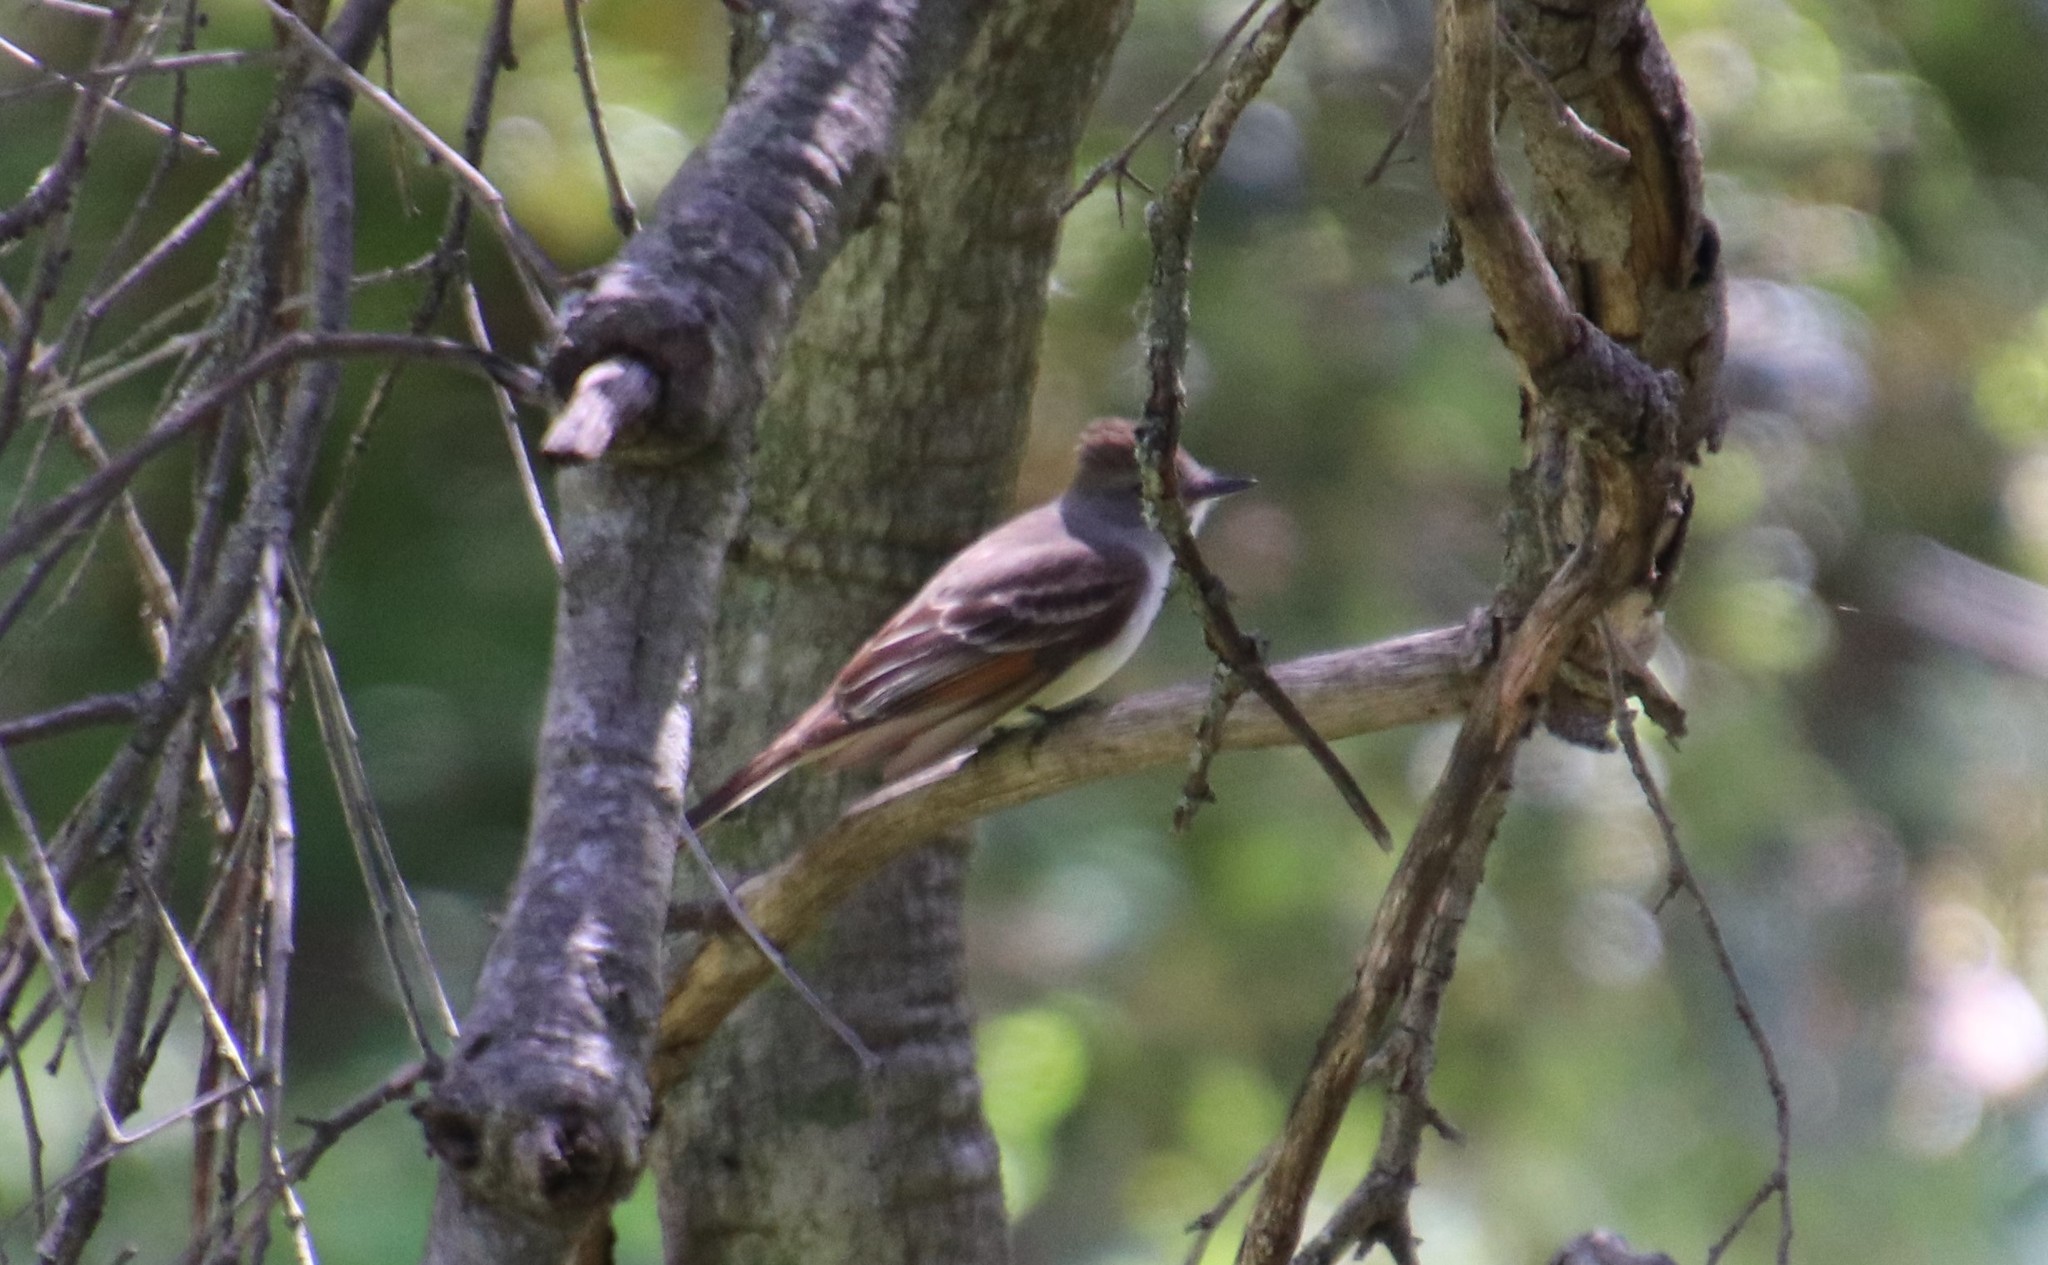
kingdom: Animalia
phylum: Chordata
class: Aves
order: Passeriformes
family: Tyrannidae
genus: Myiarchus
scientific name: Myiarchus cinerascens
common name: Ash-throated flycatcher
